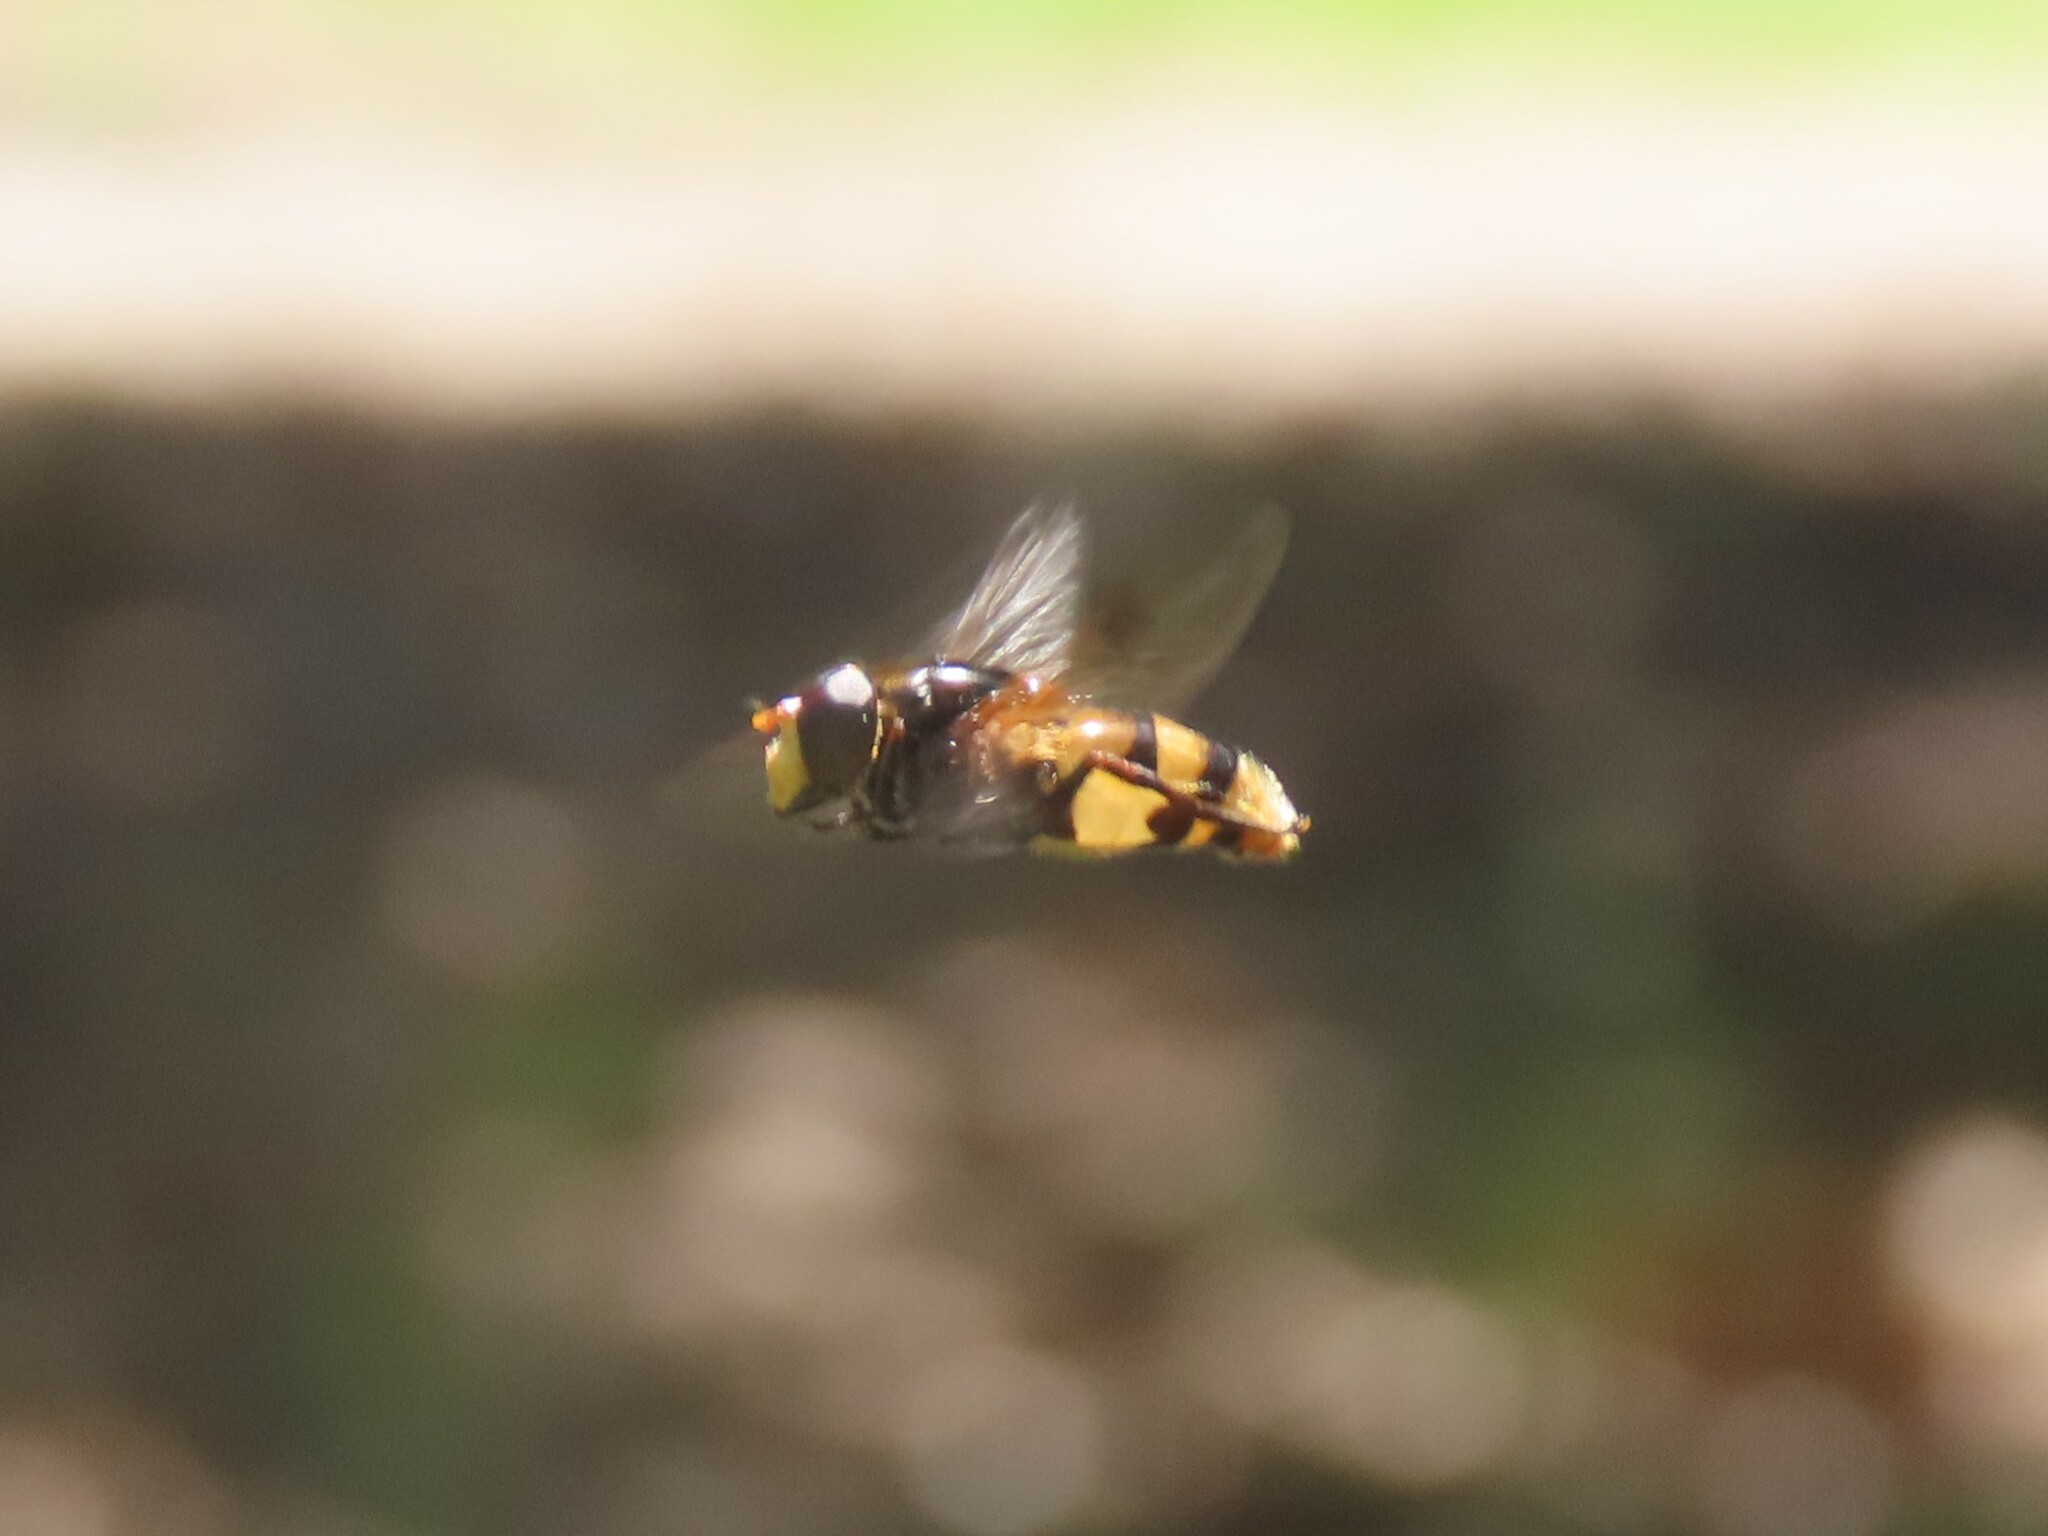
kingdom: Animalia
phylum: Arthropoda
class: Insecta
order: Diptera
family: Syrphidae
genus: Volucella
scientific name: Volucella elegans
